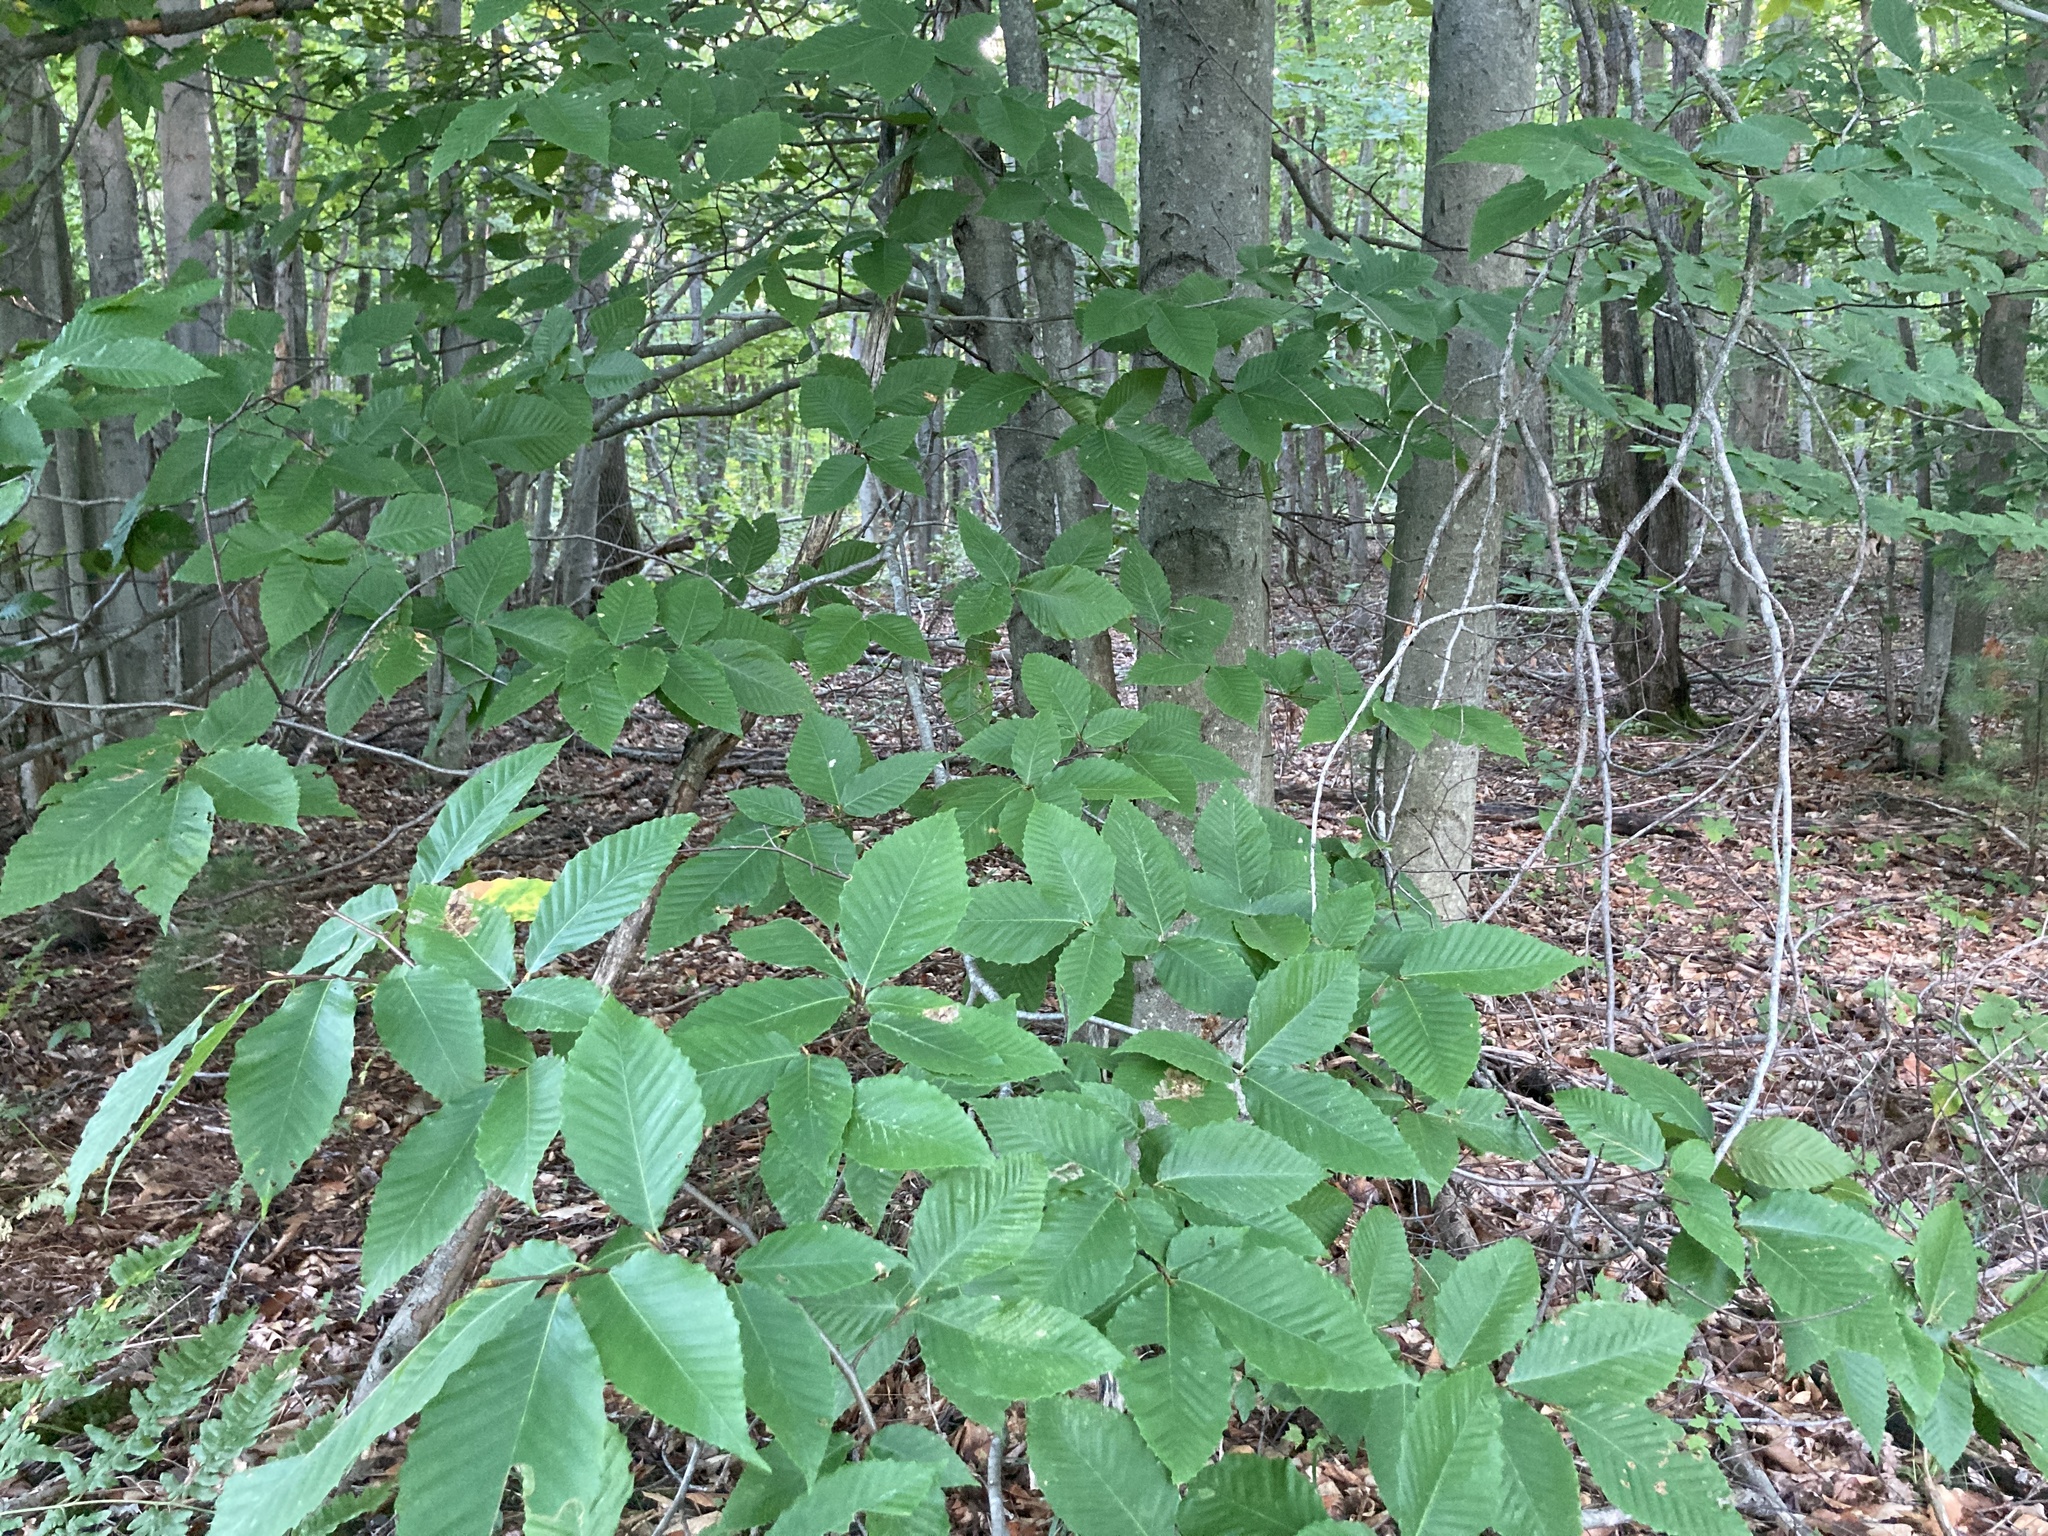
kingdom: Plantae
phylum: Tracheophyta
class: Magnoliopsida
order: Fagales
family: Fagaceae
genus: Fagus
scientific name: Fagus grandifolia
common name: American beech
